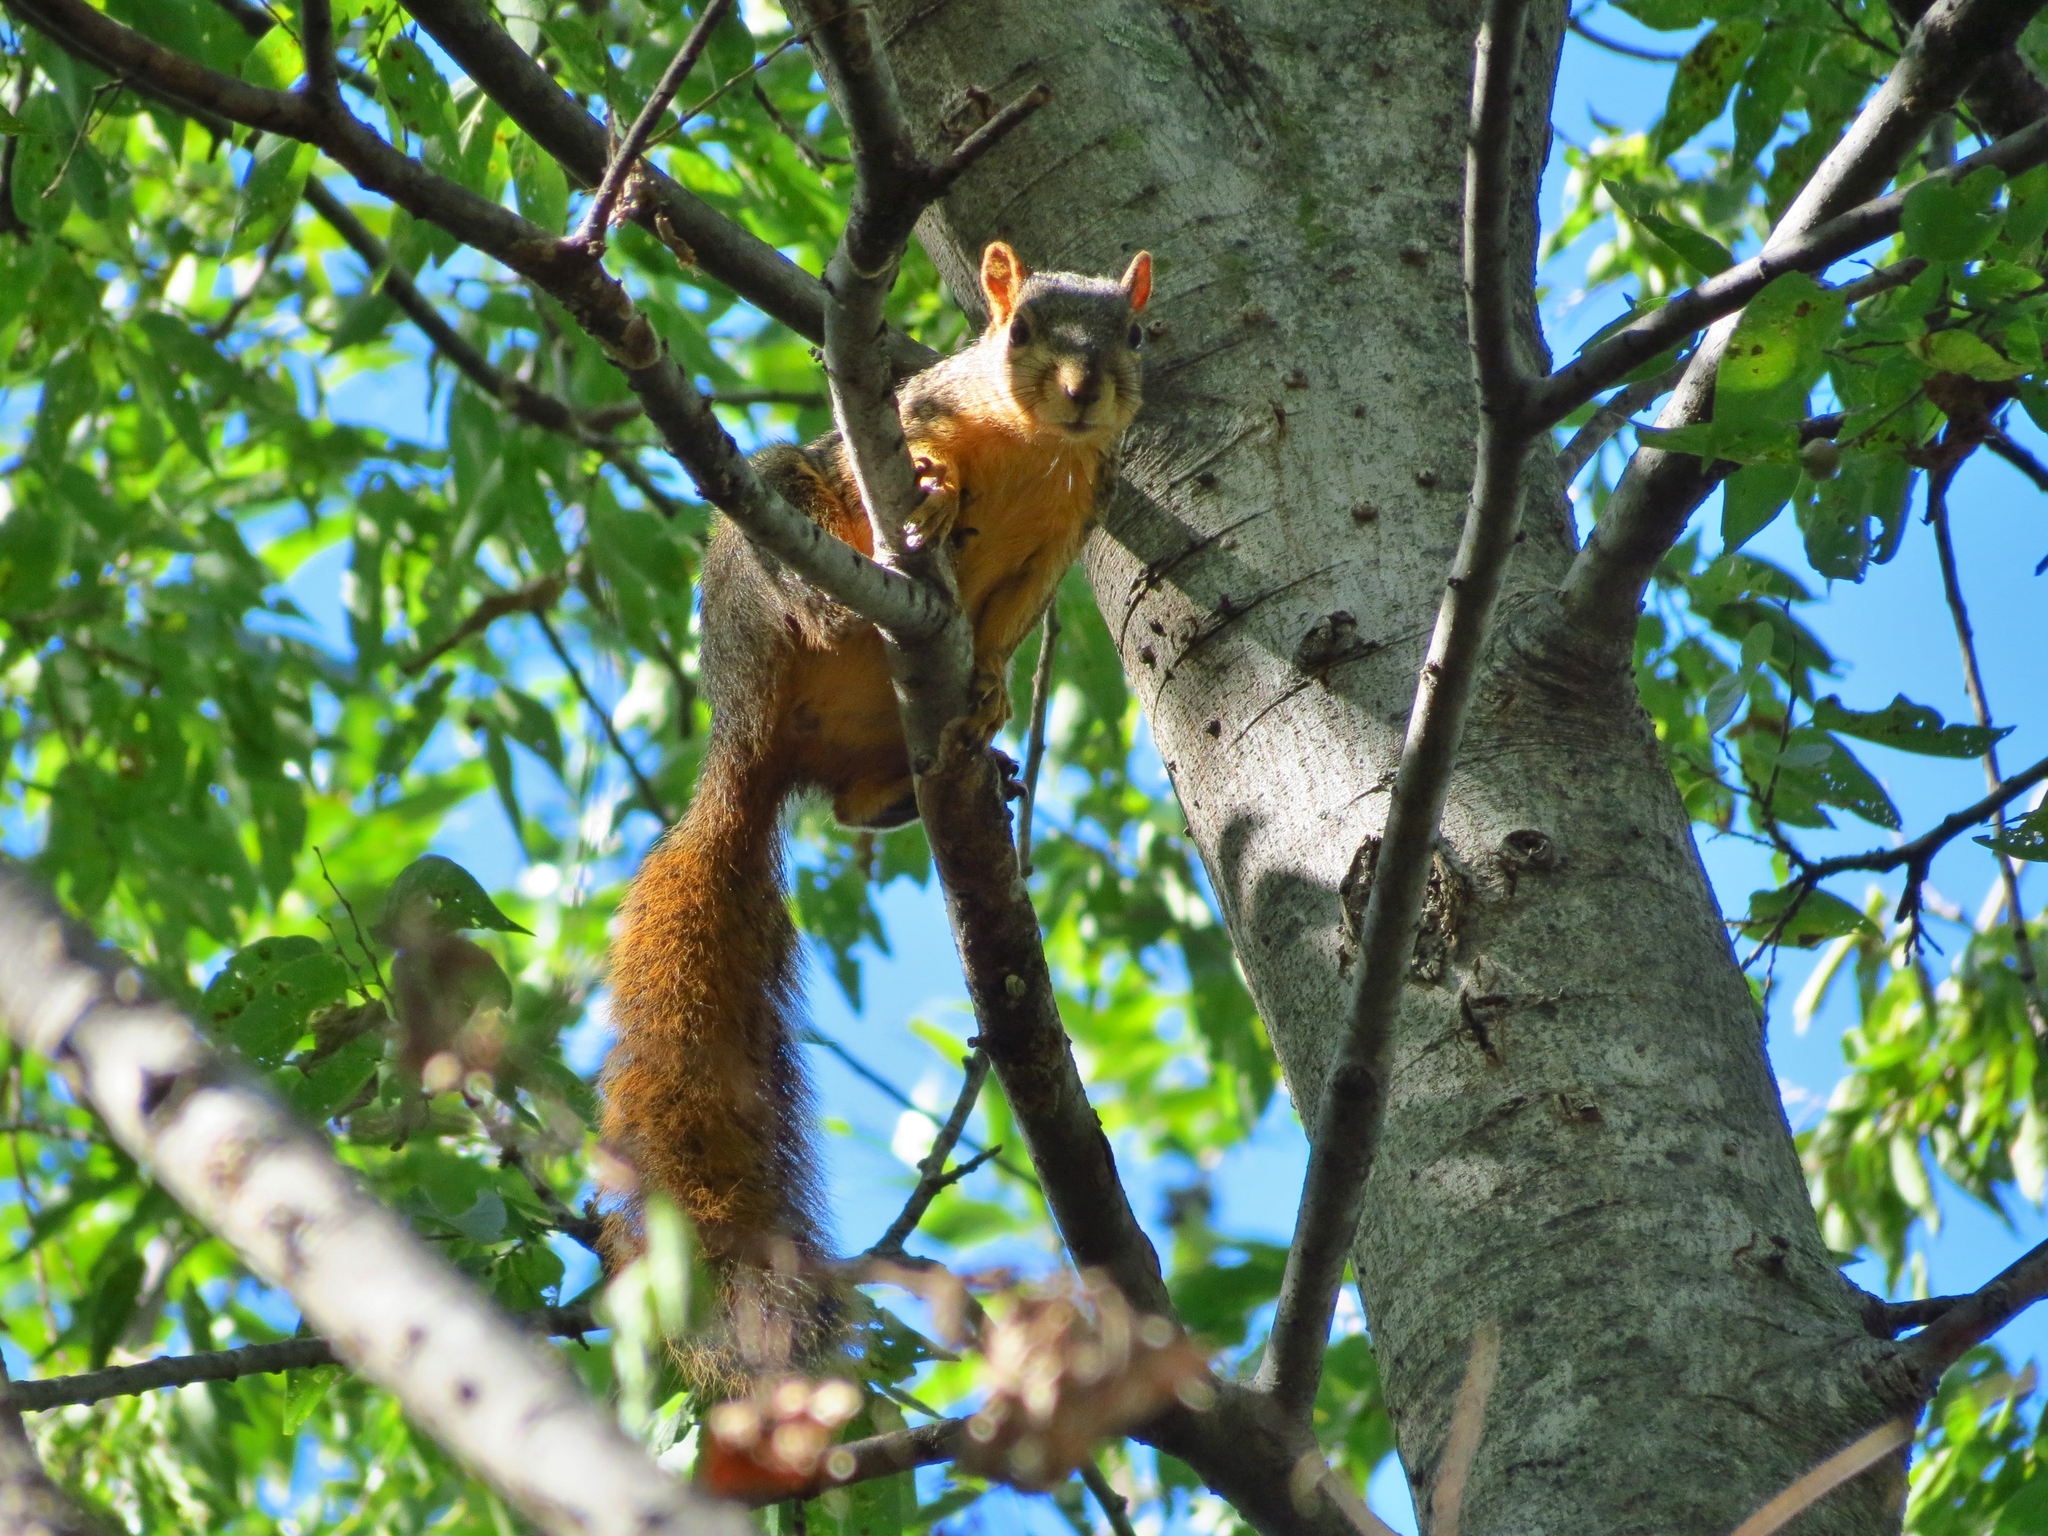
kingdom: Animalia
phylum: Chordata
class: Mammalia
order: Rodentia
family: Sciuridae
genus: Sciurus
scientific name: Sciurus niger
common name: Fox squirrel
